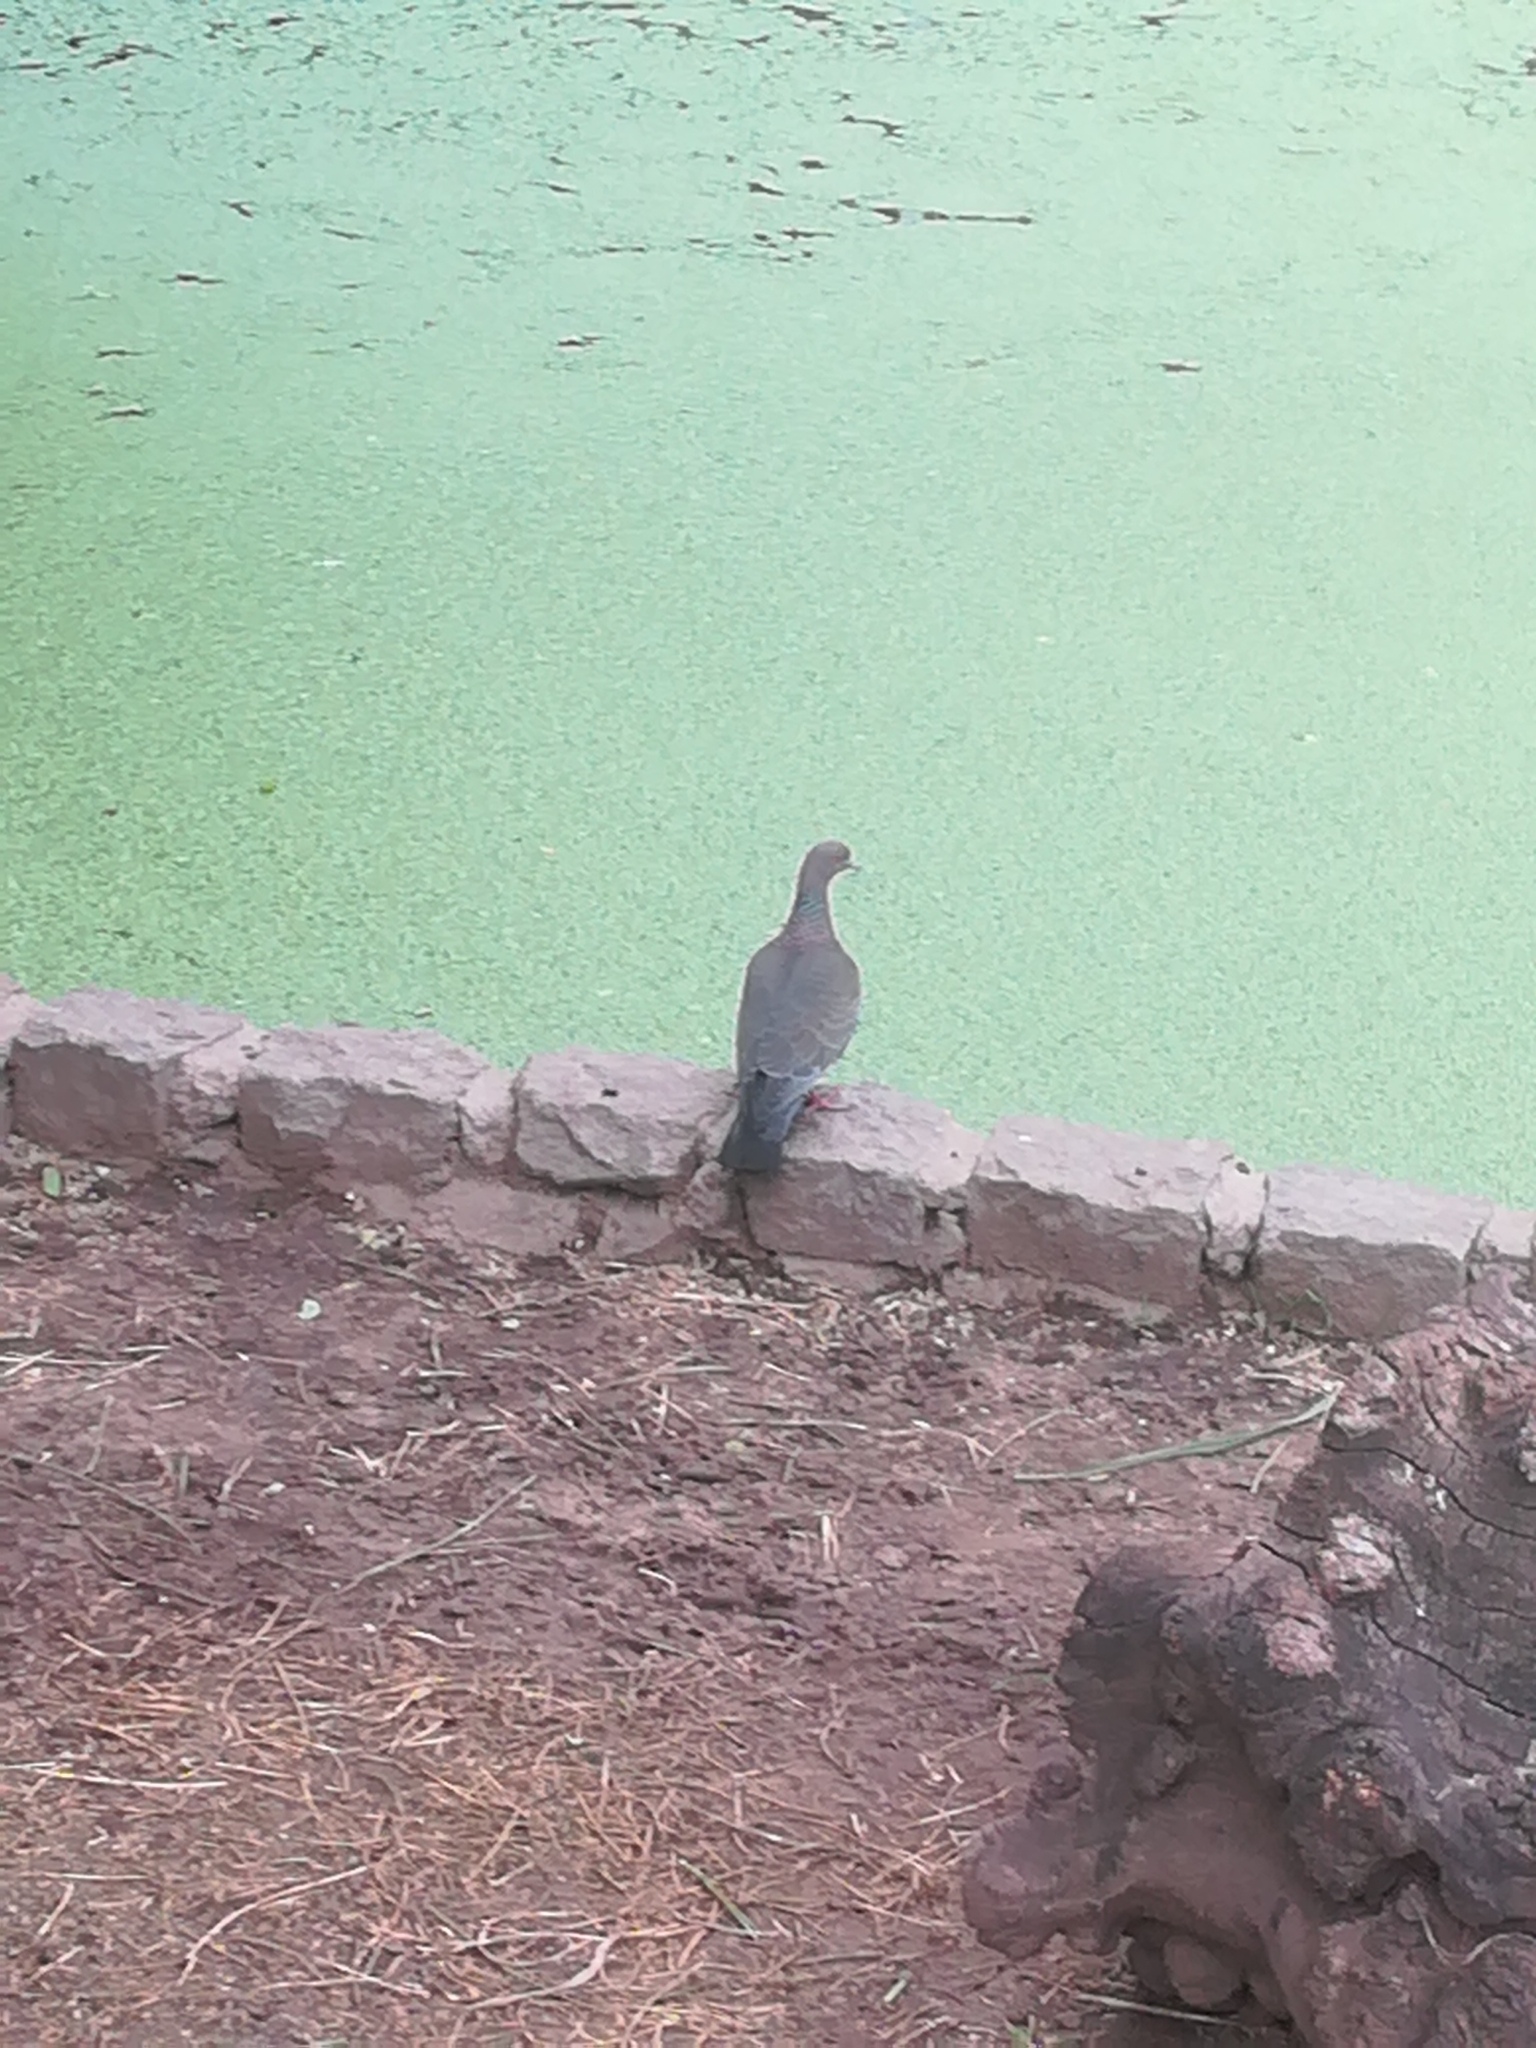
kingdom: Animalia
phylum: Chordata
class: Aves
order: Columbiformes
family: Columbidae
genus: Patagioenas
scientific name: Patagioenas picazuro
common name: Picazuro pigeon
